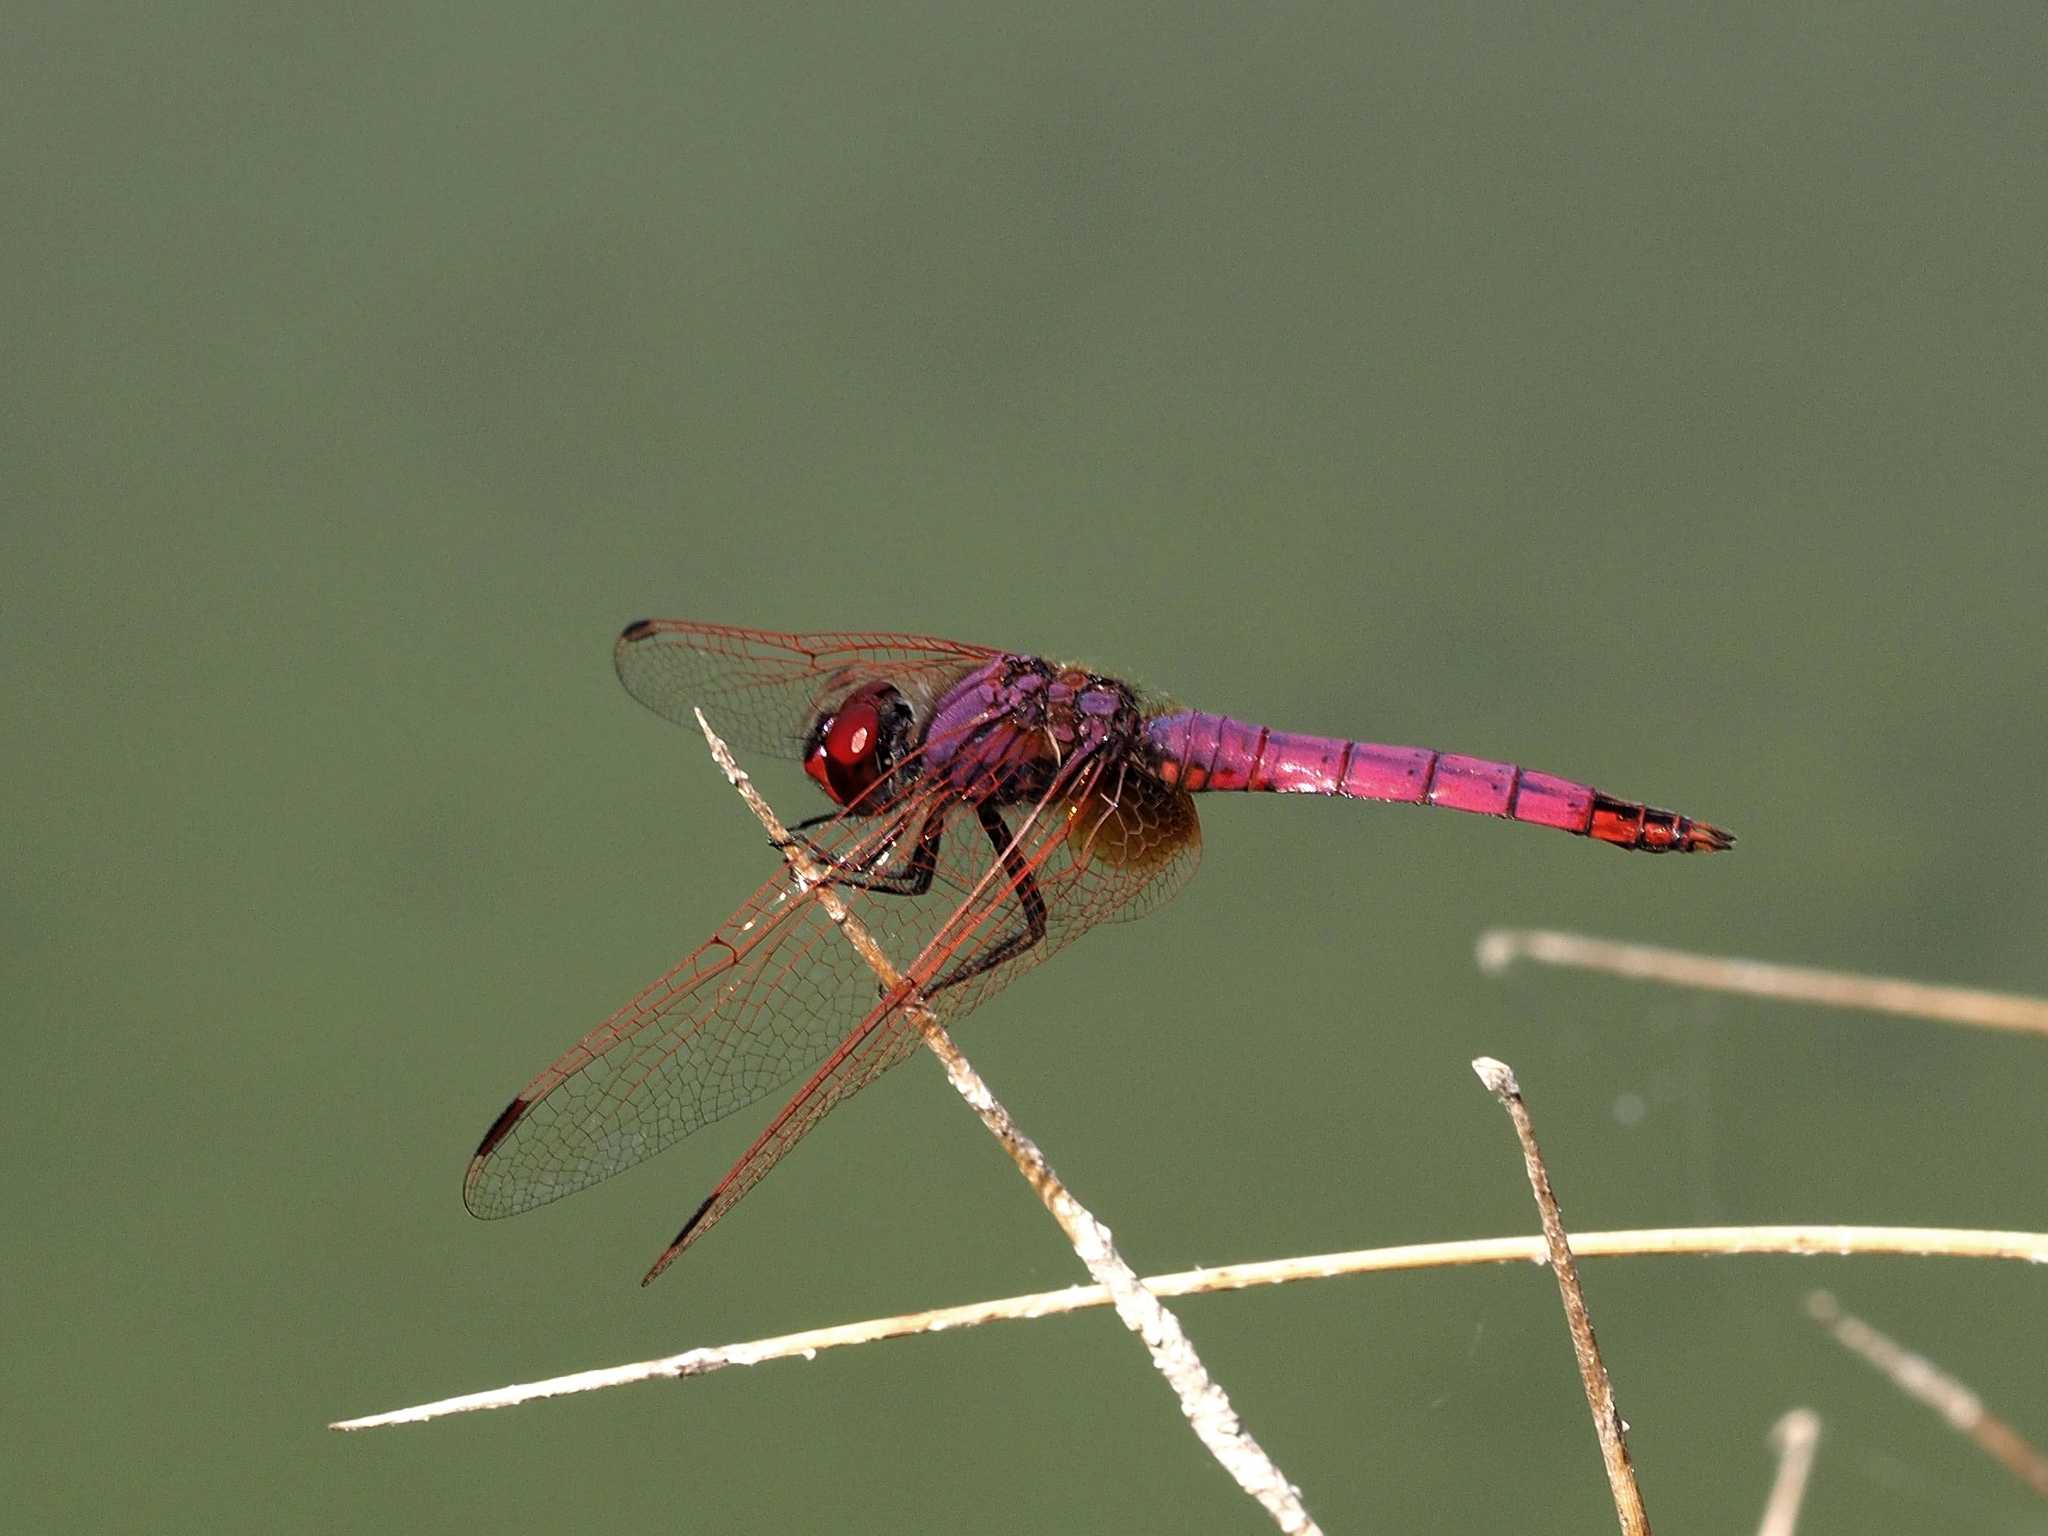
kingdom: Animalia
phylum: Arthropoda
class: Insecta
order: Odonata
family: Libellulidae
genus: Trithemis
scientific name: Trithemis annulata
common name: Violet dropwing
